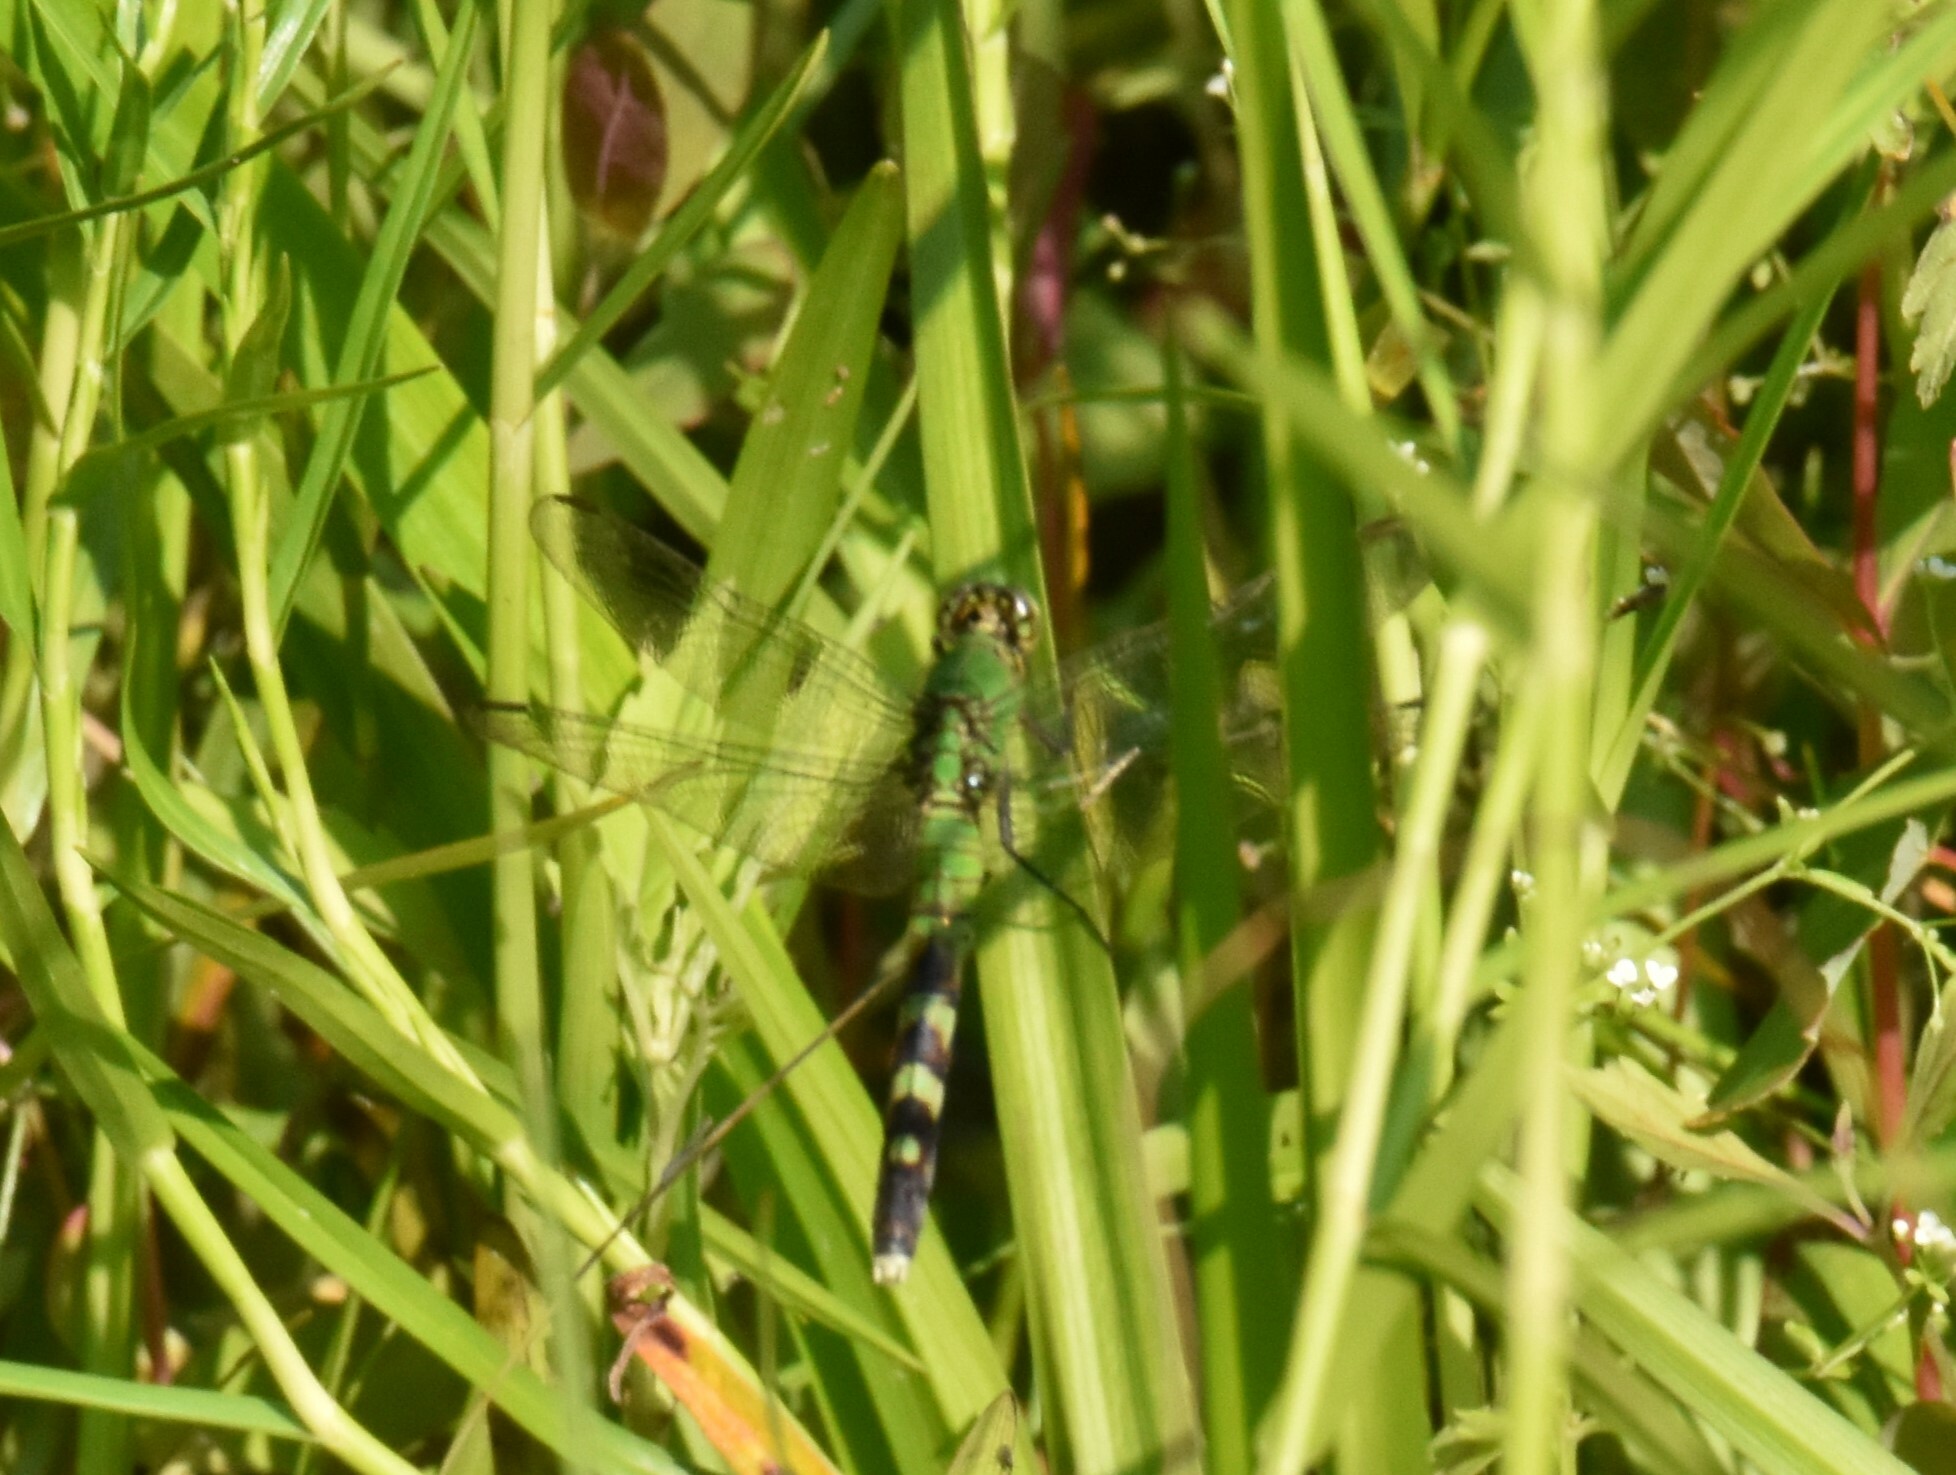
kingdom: Animalia
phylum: Arthropoda
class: Insecta
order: Odonata
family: Libellulidae
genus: Erythemis
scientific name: Erythemis simplicicollis
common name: Eastern pondhawk
